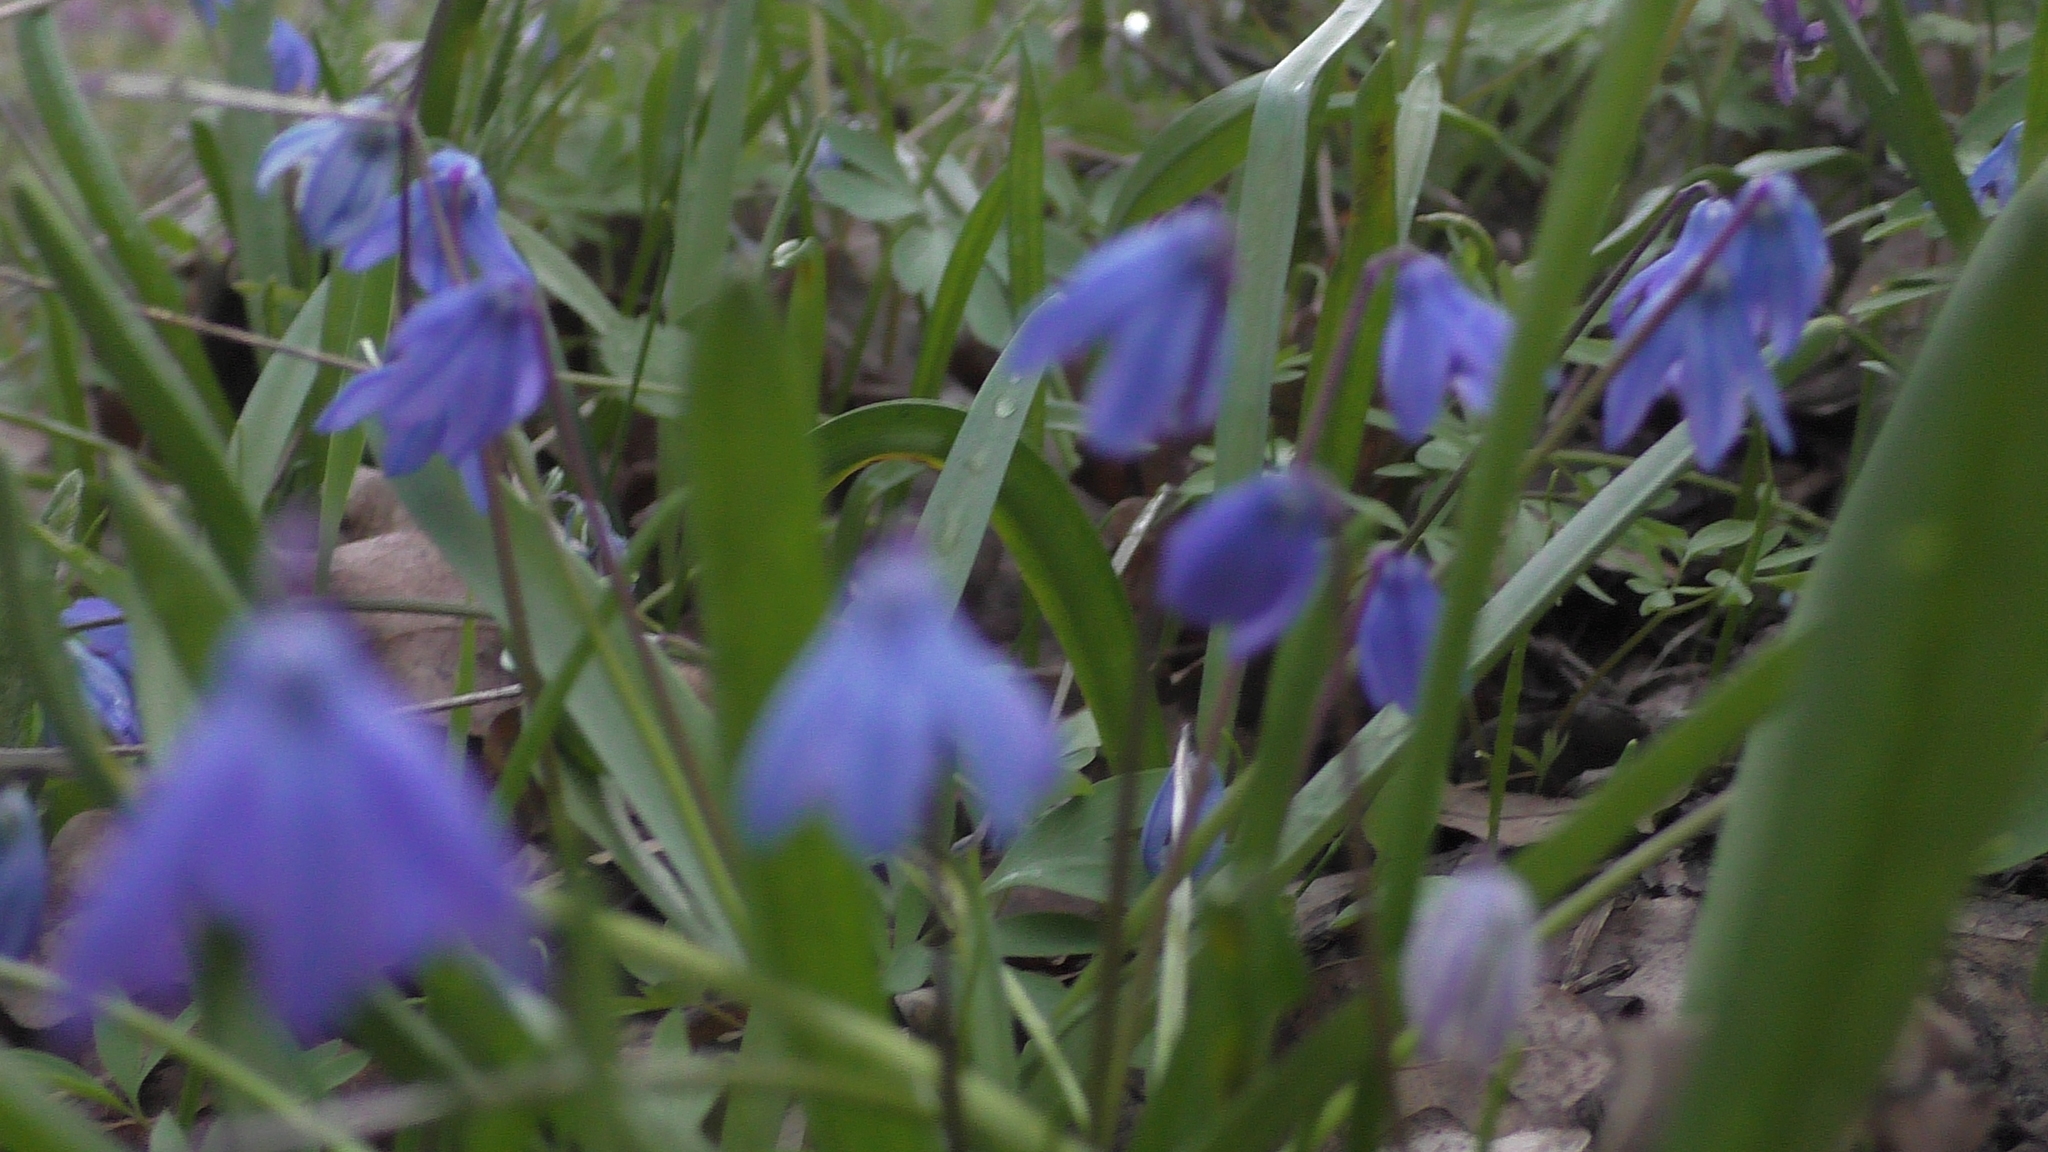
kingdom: Plantae
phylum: Tracheophyta
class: Liliopsida
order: Asparagales
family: Asparagaceae
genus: Scilla
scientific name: Scilla siberica
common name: Siberian squill
